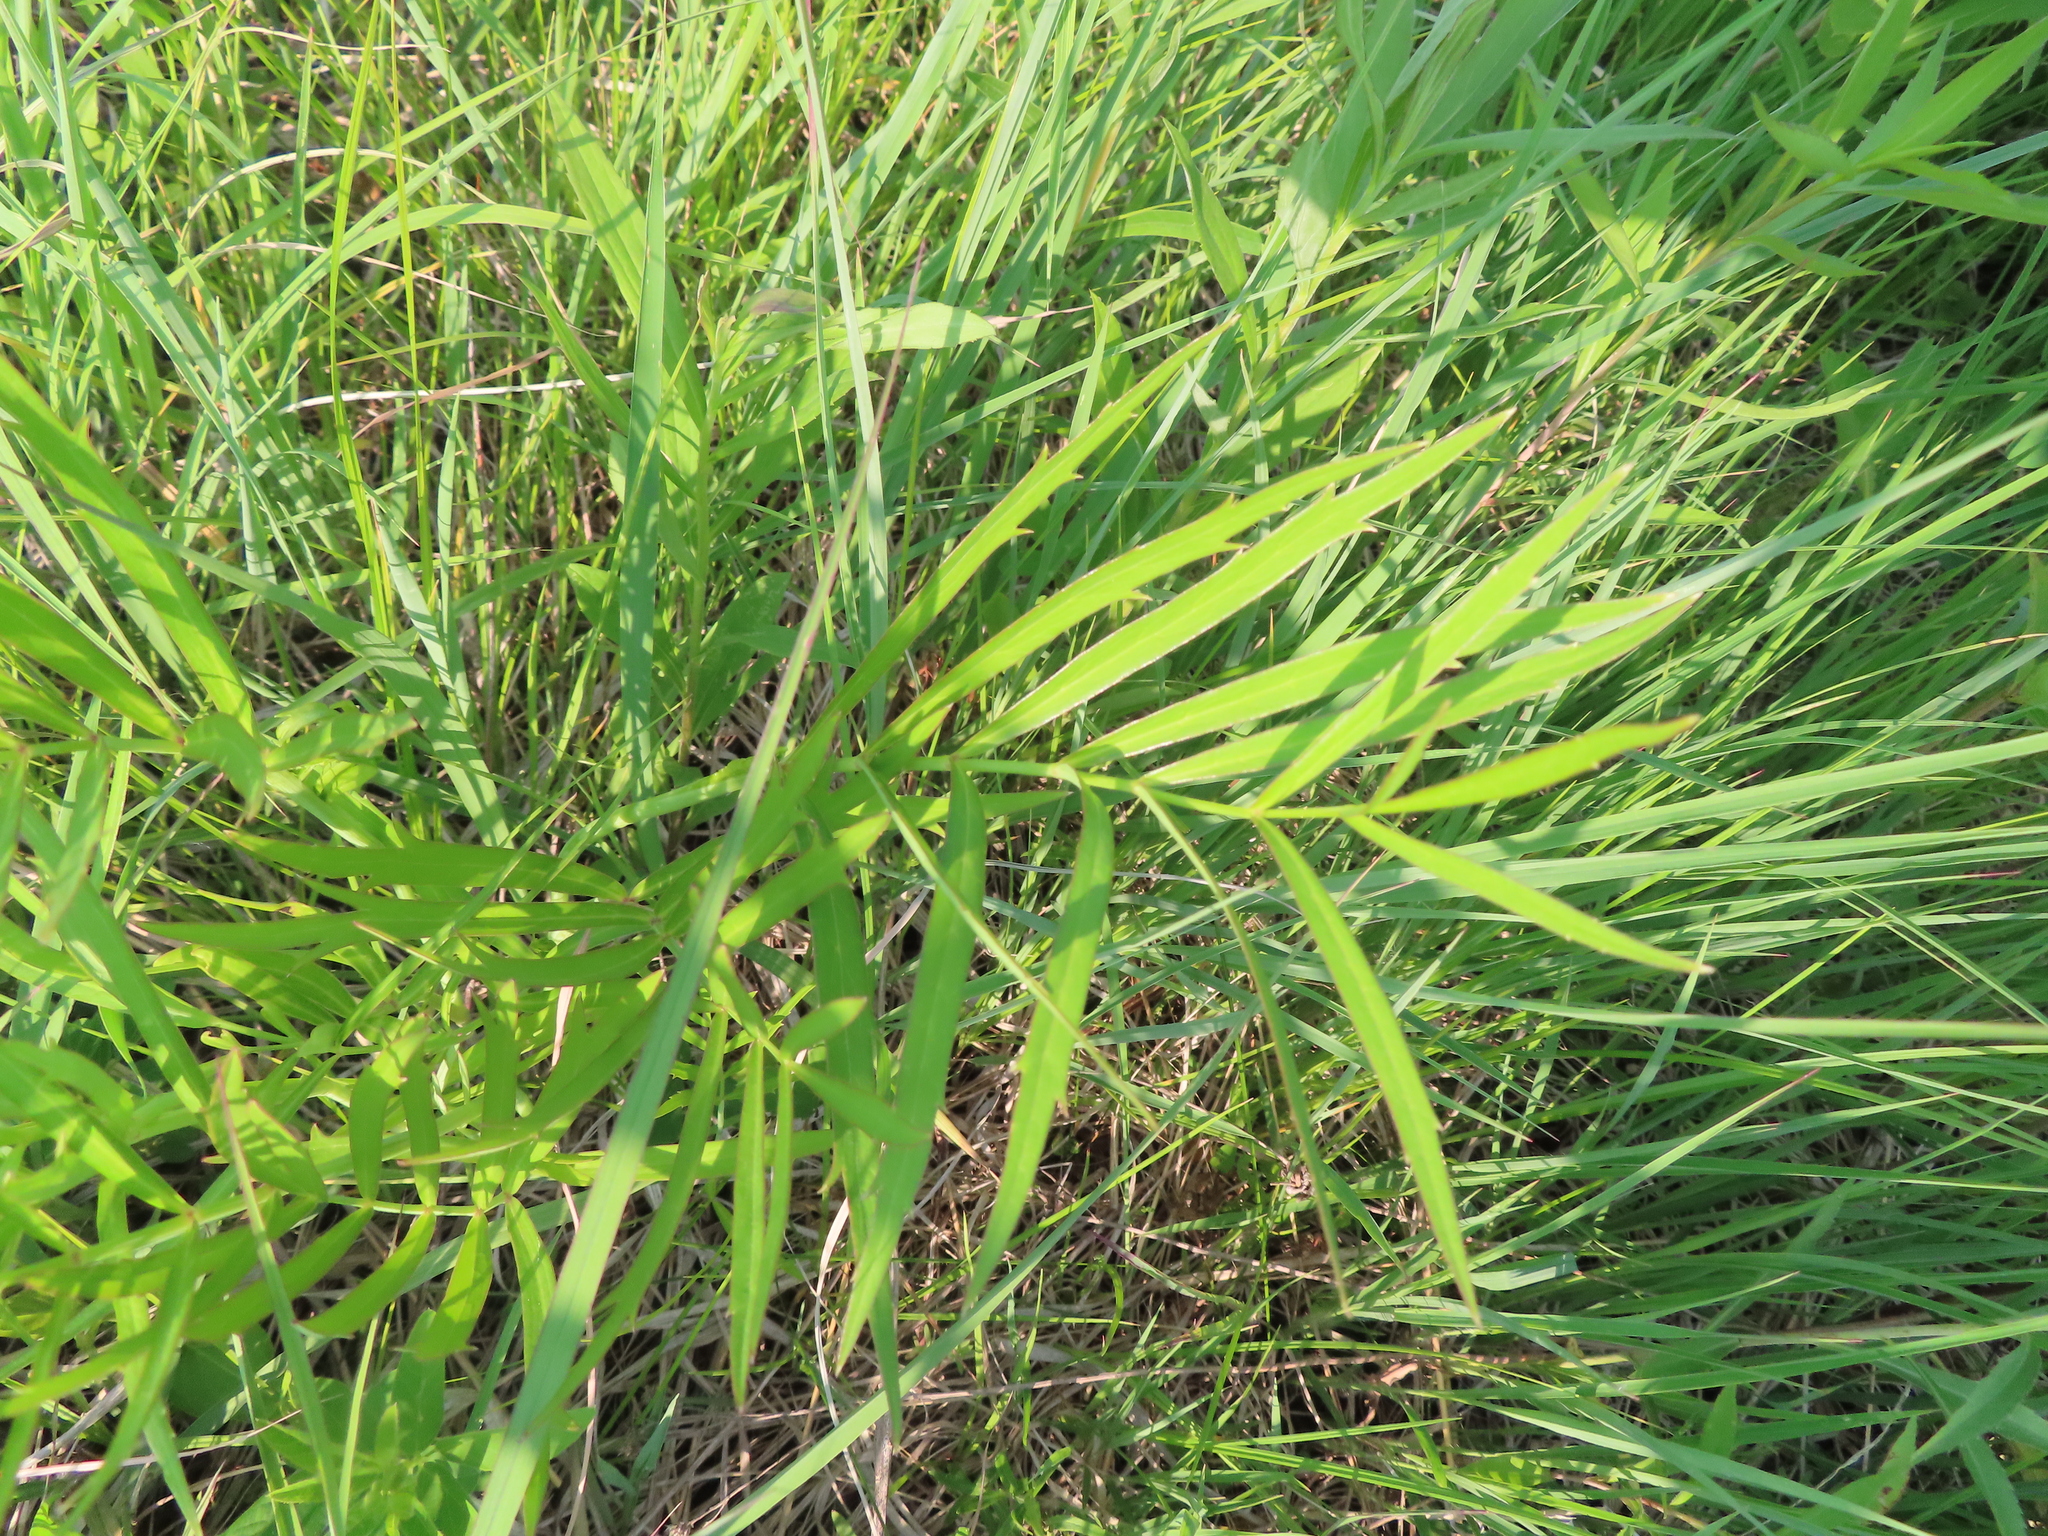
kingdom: Plantae
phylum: Tracheophyta
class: Magnoliopsida
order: Apiales
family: Apiaceae
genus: Oxypolis
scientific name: Oxypolis rigidior
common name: Cowbane
